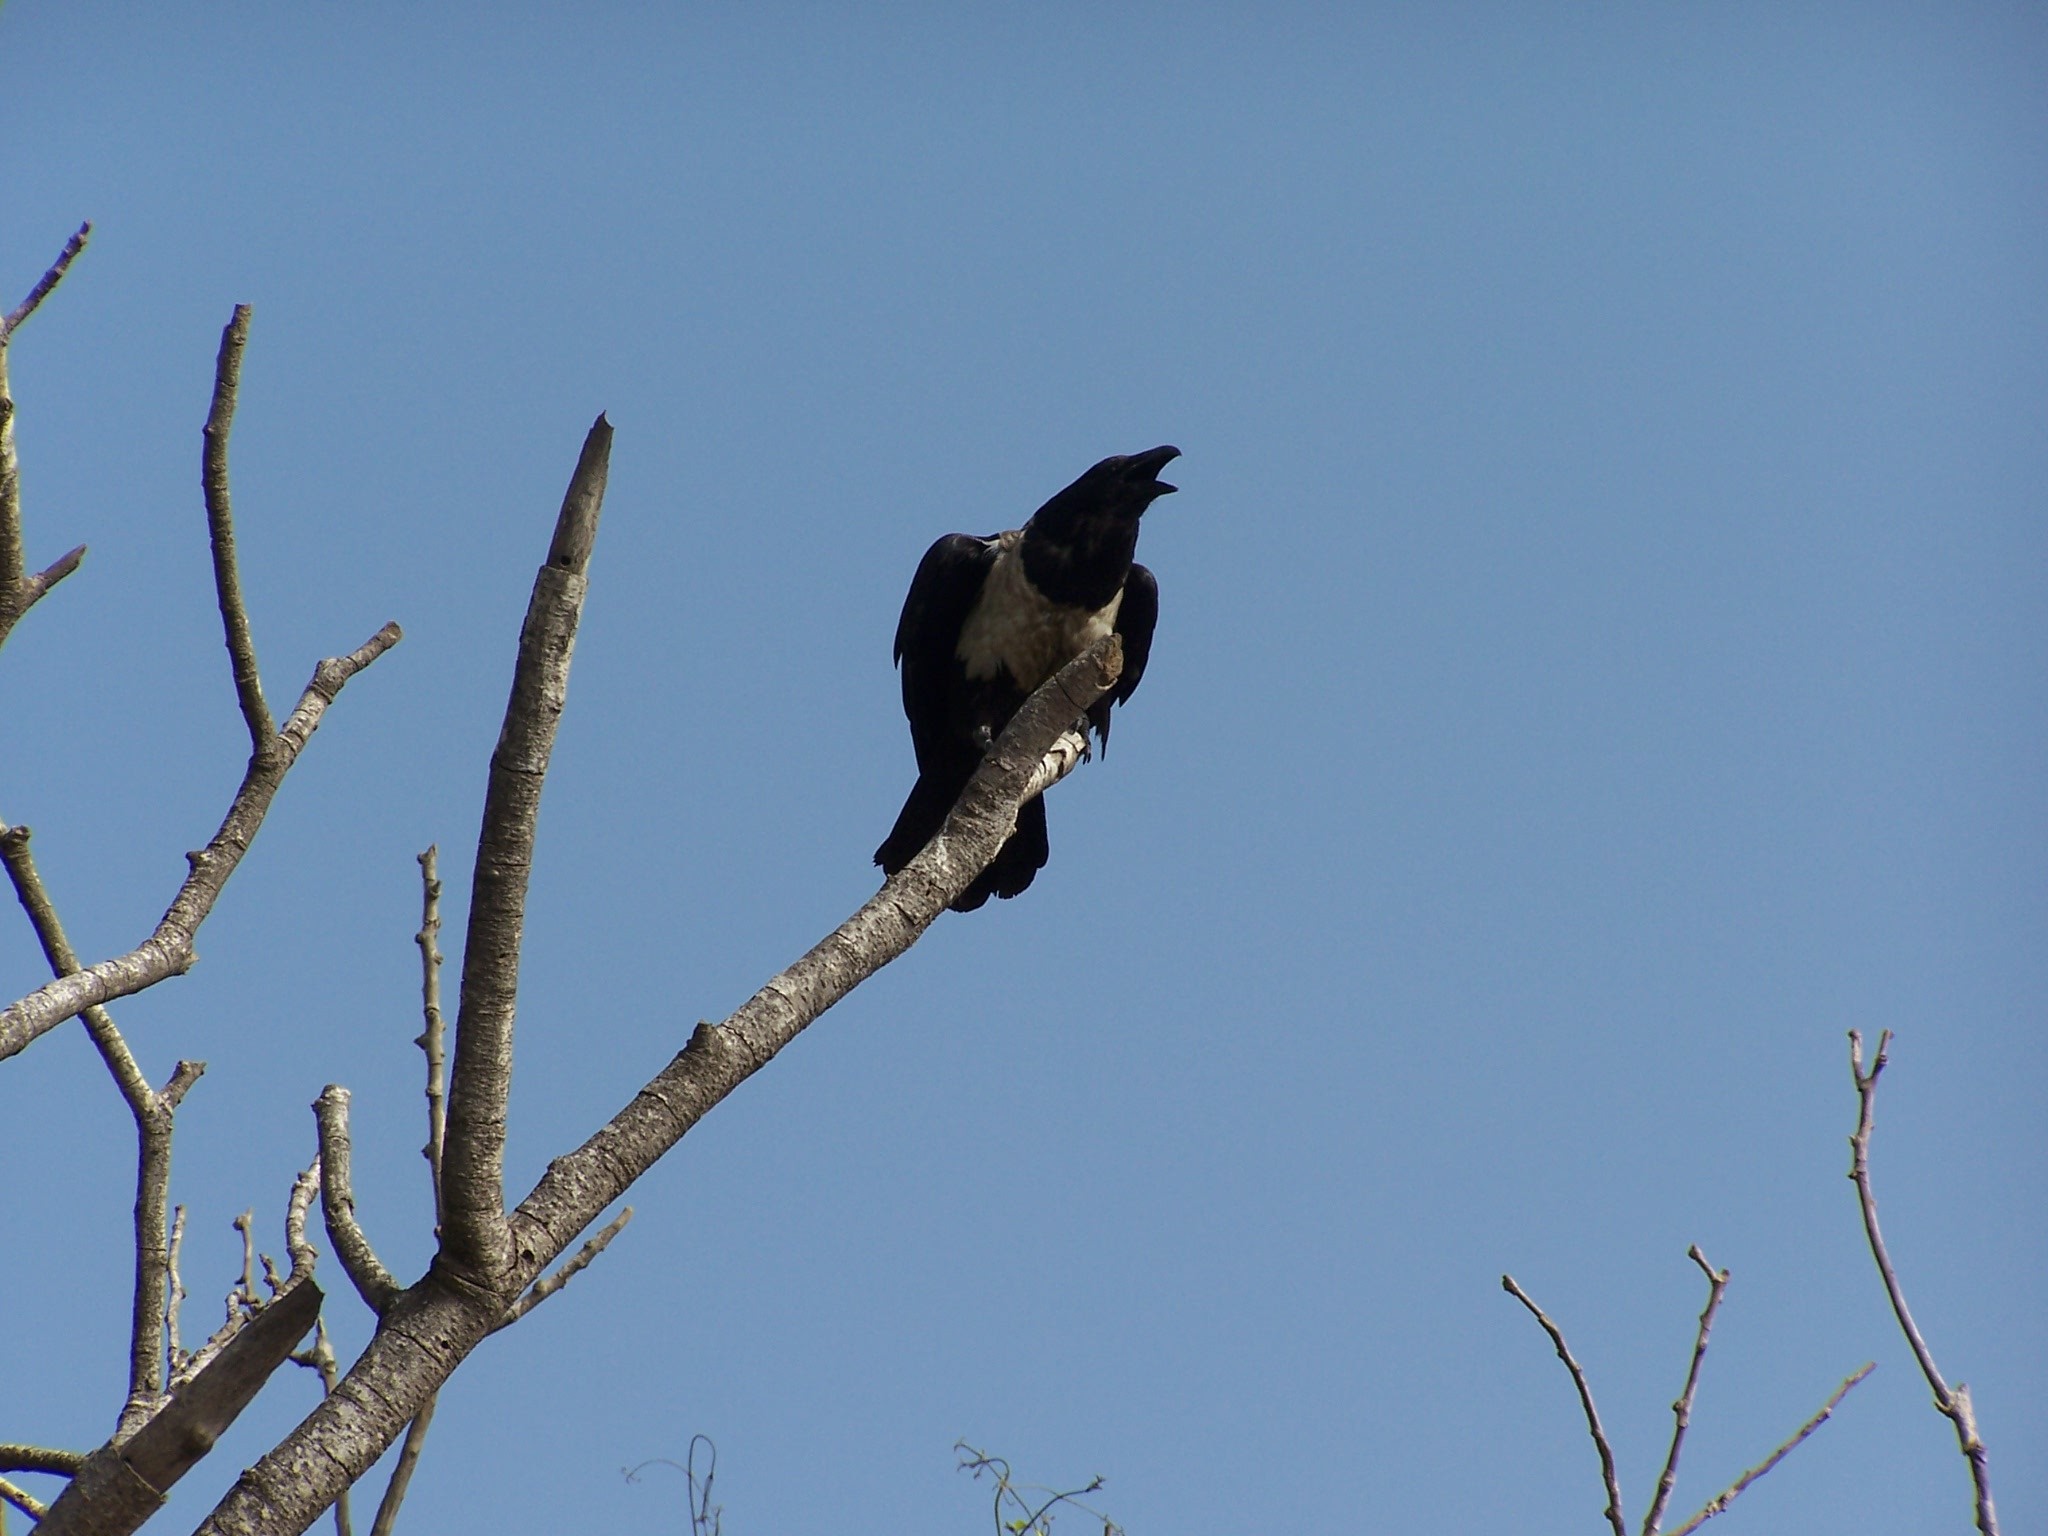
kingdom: Animalia
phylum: Chordata
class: Aves
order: Passeriformes
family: Corvidae
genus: Corvus
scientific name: Corvus albus
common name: Pied crow
